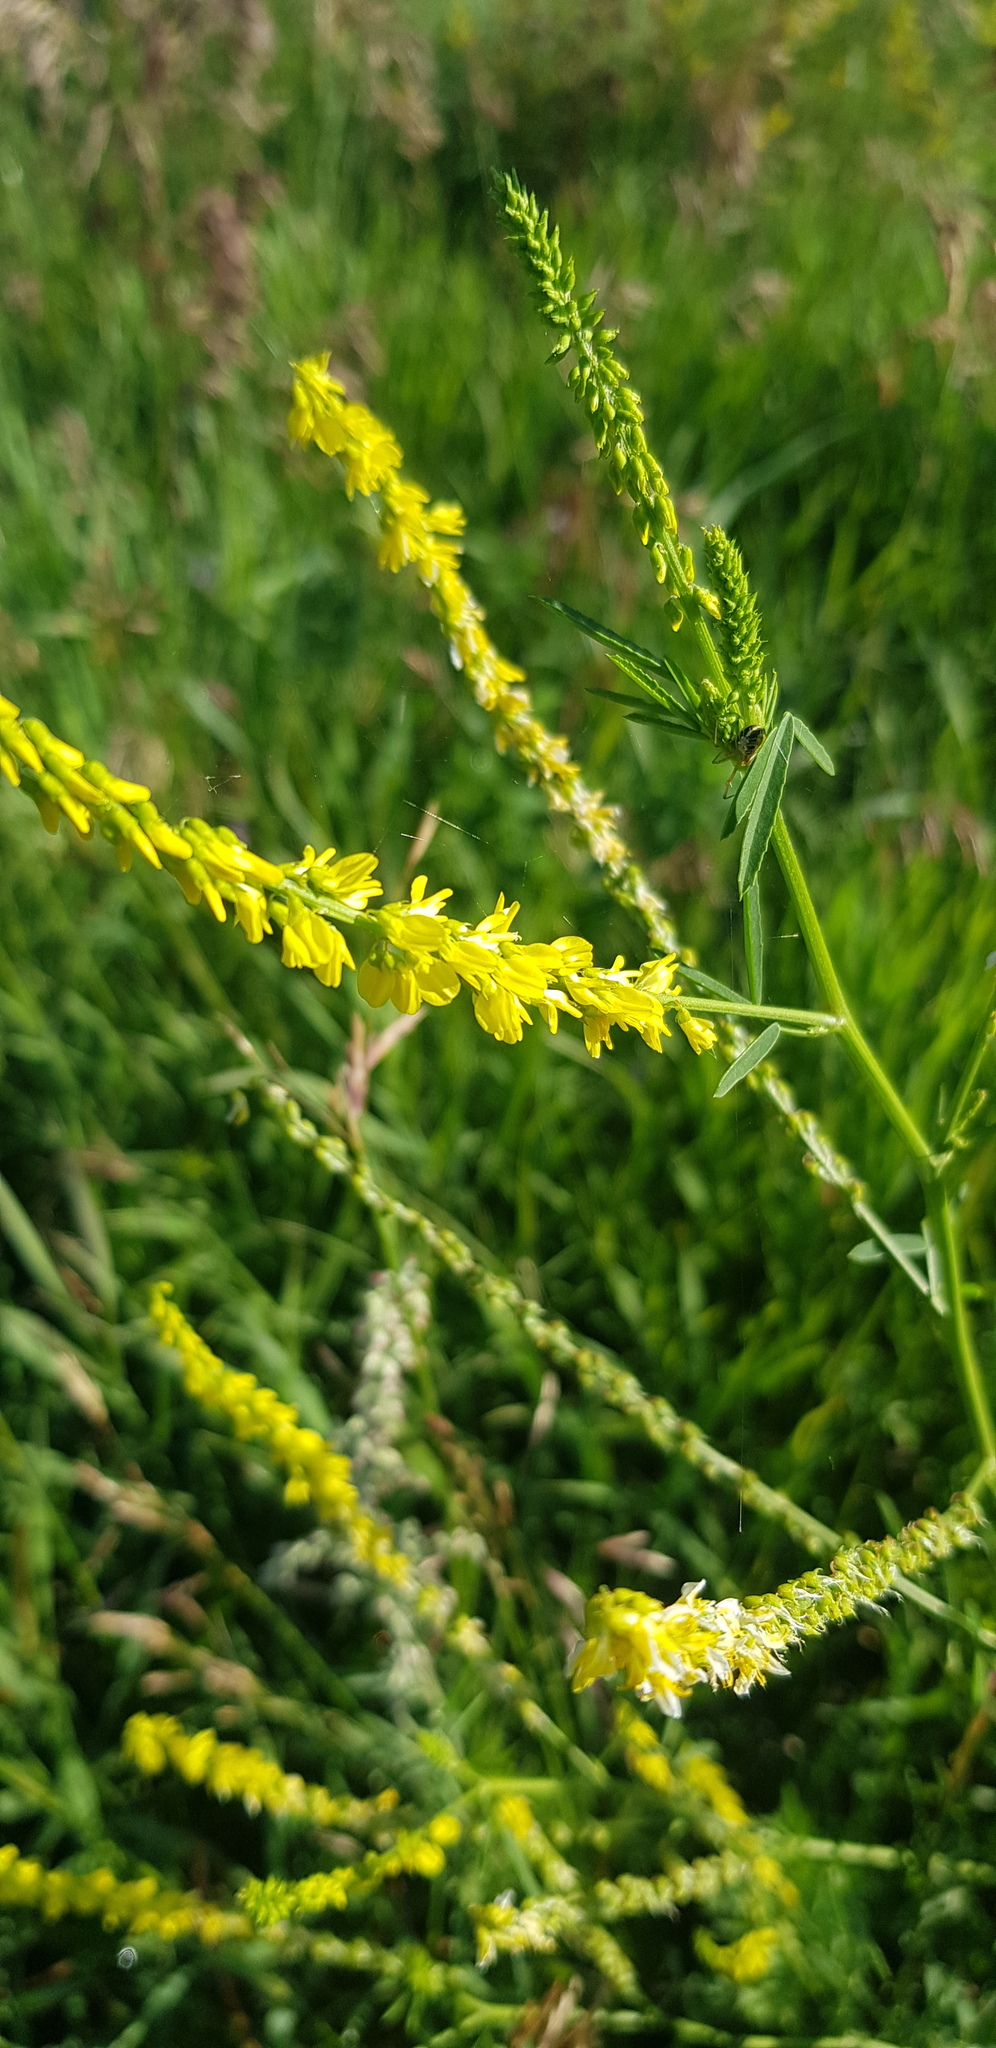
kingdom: Plantae
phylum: Tracheophyta
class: Magnoliopsida
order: Fabales
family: Fabaceae
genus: Melilotus
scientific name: Melilotus officinalis
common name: Sweetclover
